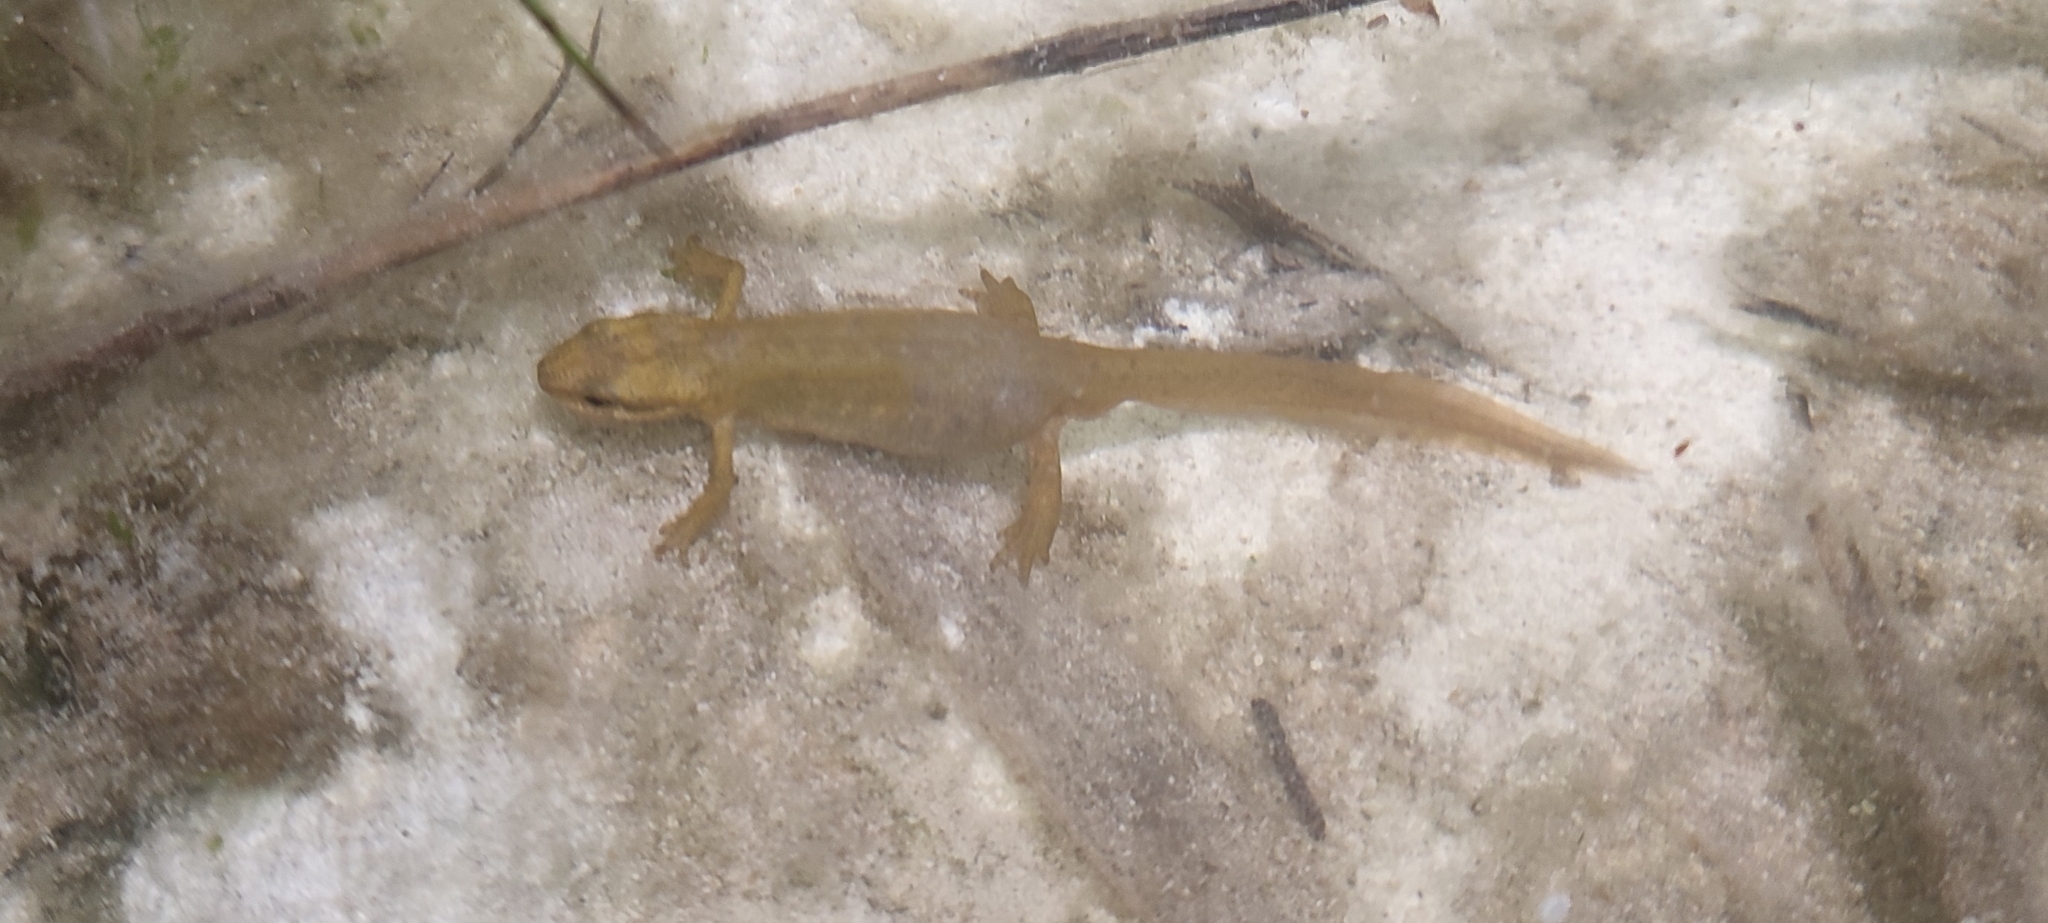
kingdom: Animalia
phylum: Chordata
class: Amphibia
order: Caudata
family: Salamandridae
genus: Lissotriton
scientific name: Lissotriton helveticus
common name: Palmate newt
